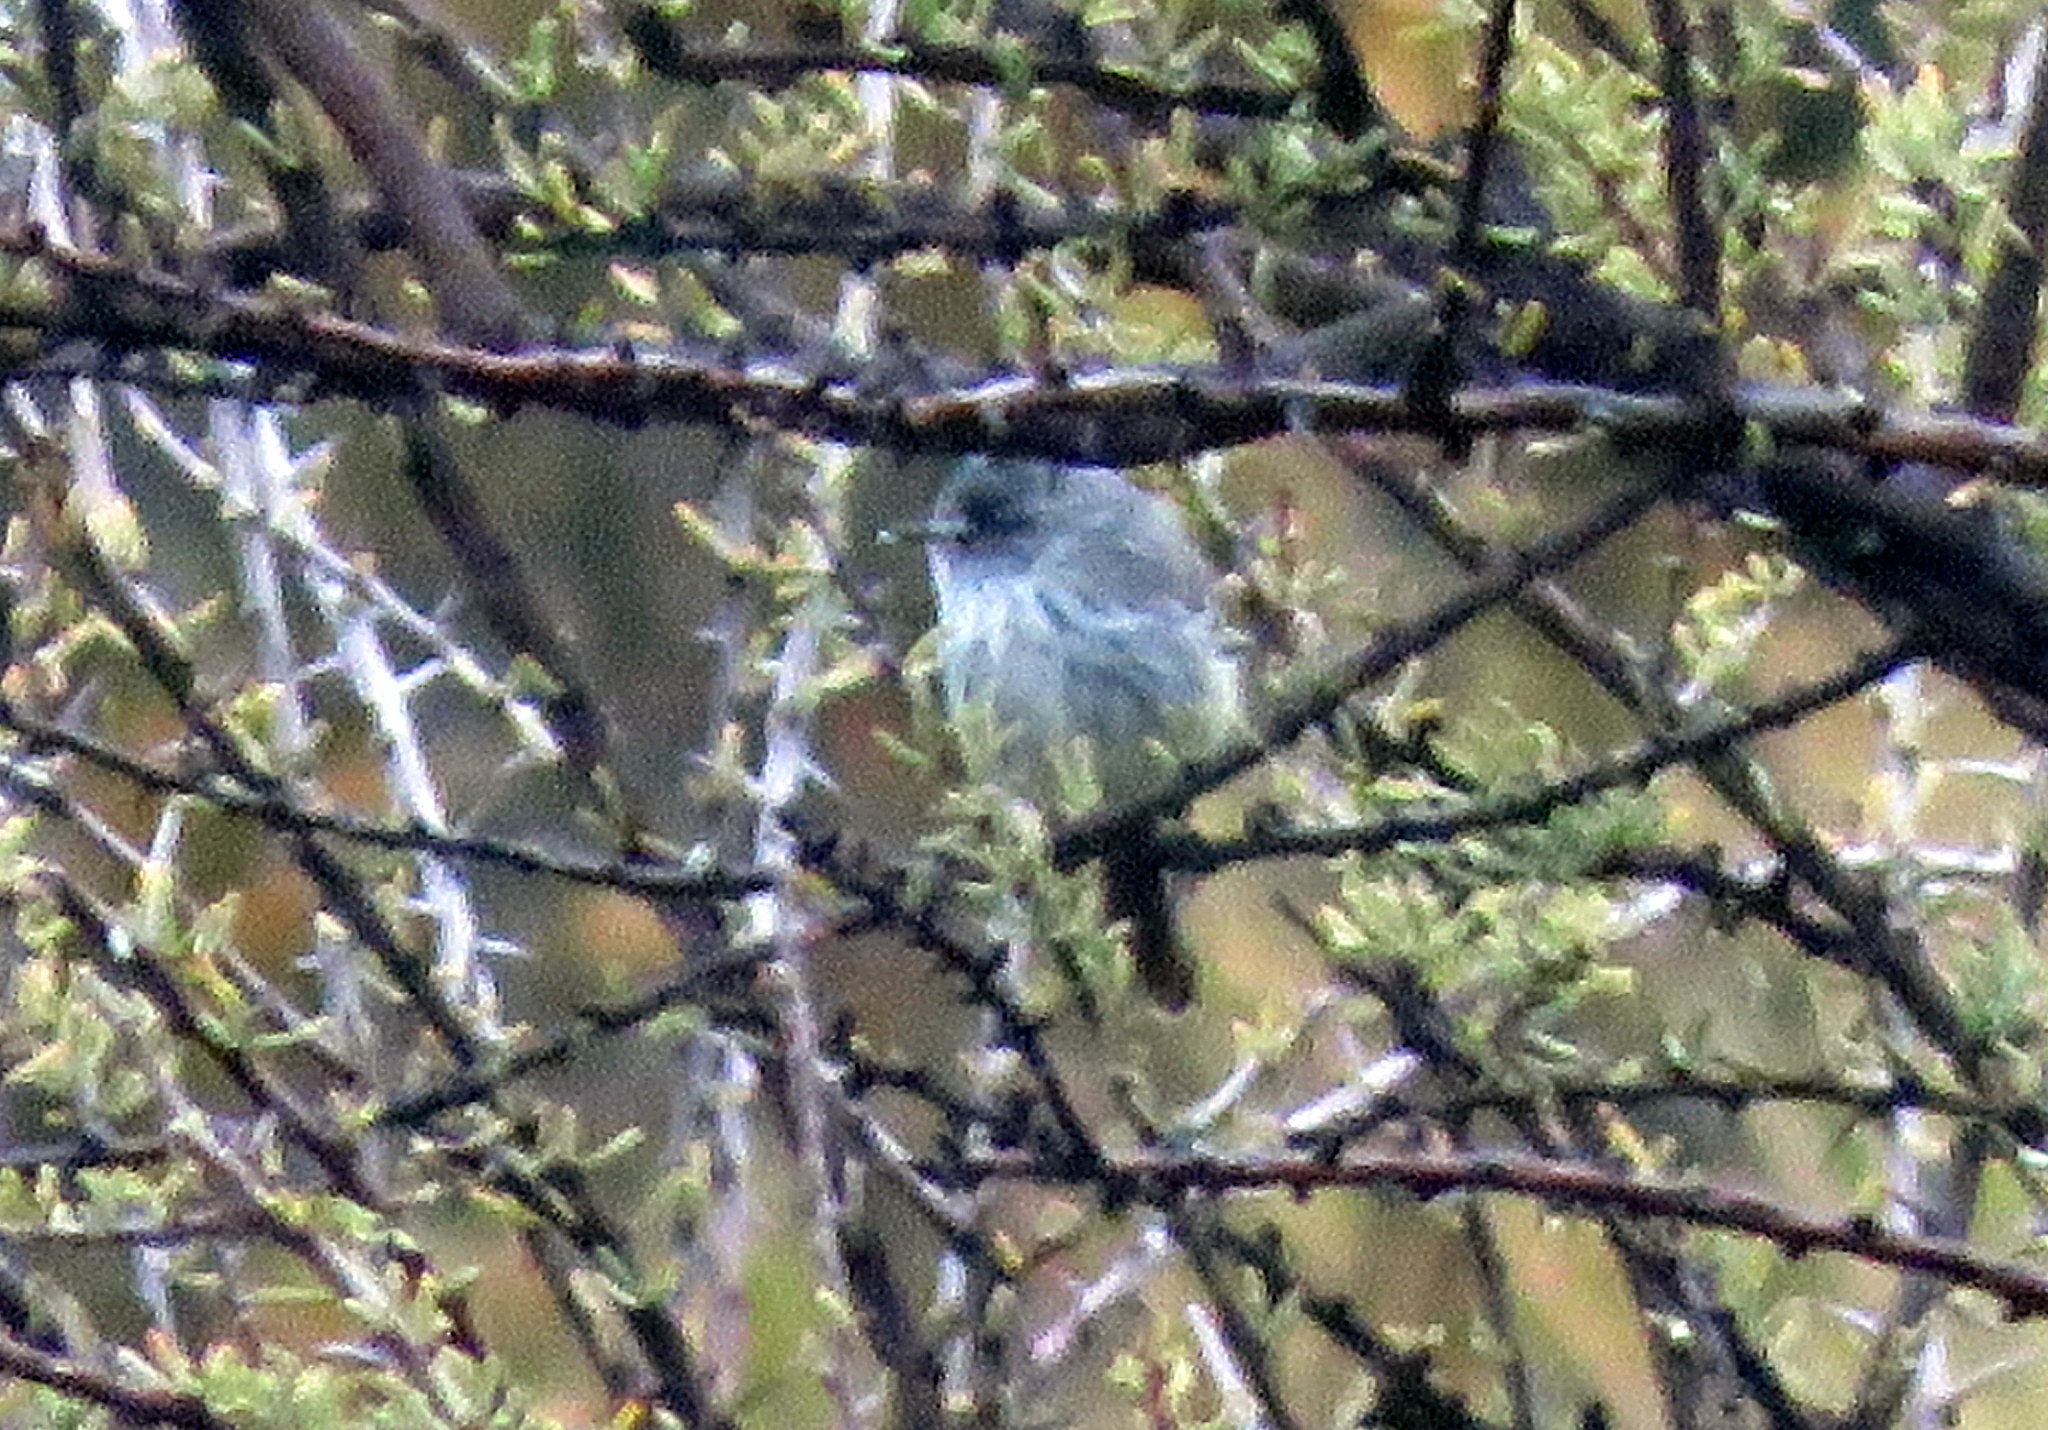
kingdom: Animalia
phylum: Chordata
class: Aves
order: Passeriformes
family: Tyrannidae
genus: Anairetes
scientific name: Anairetes parulus
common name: Tufted tit-tyrant
